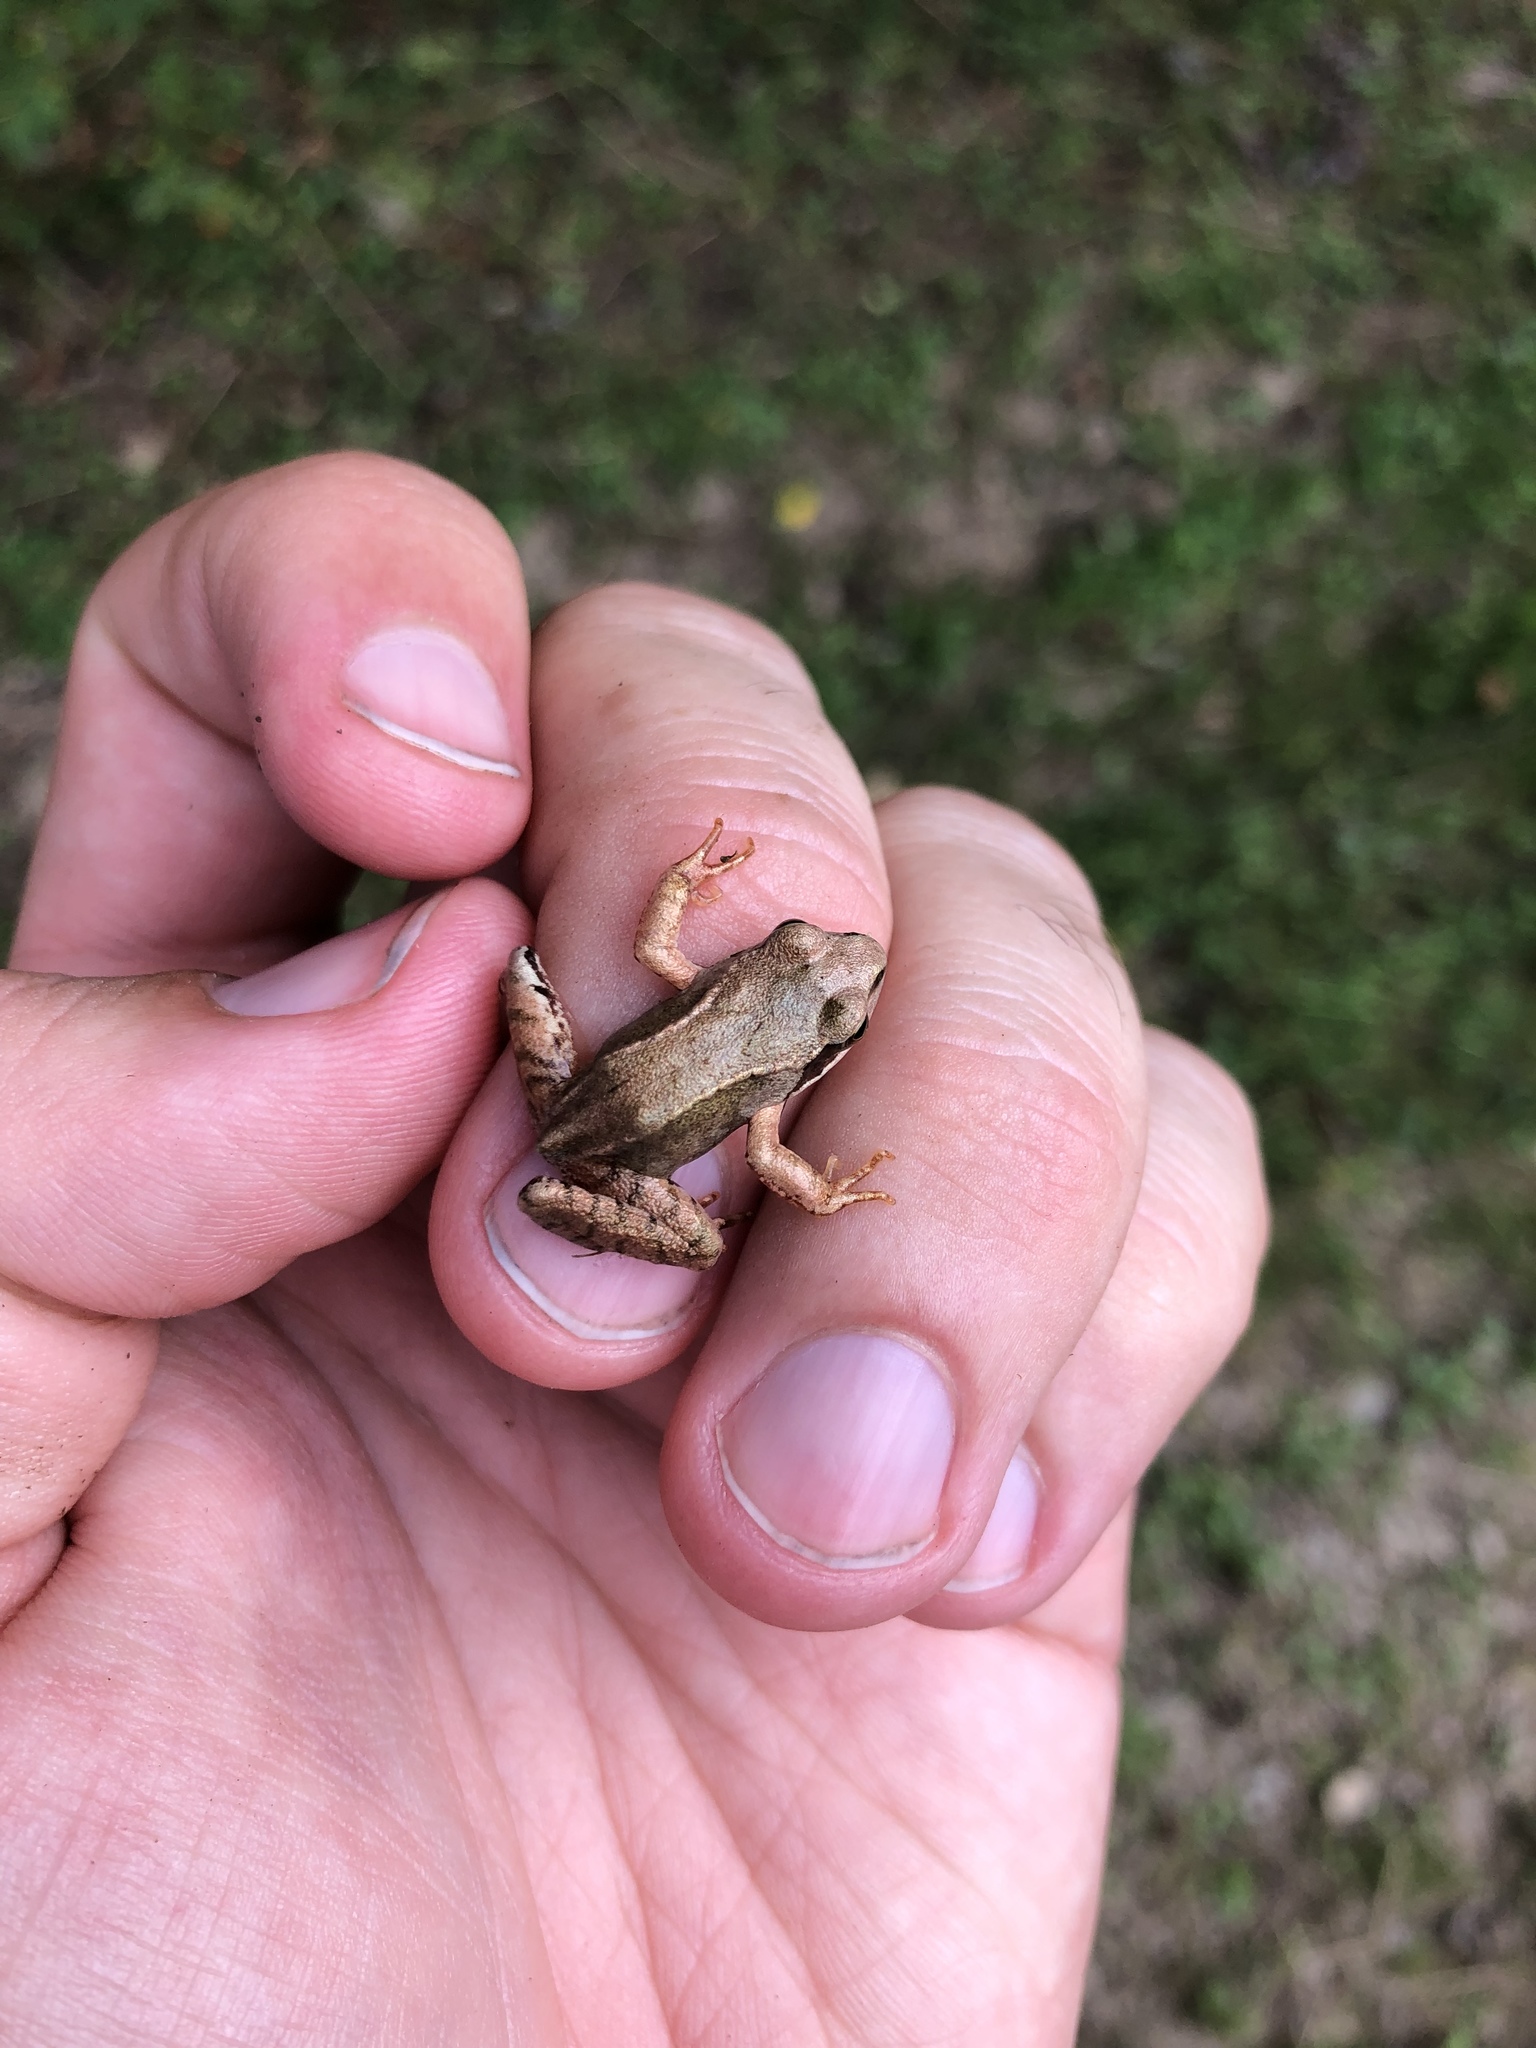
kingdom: Animalia
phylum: Chordata
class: Amphibia
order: Anura
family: Ranidae
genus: Rana
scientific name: Rana dalmatina
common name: Agile frog
